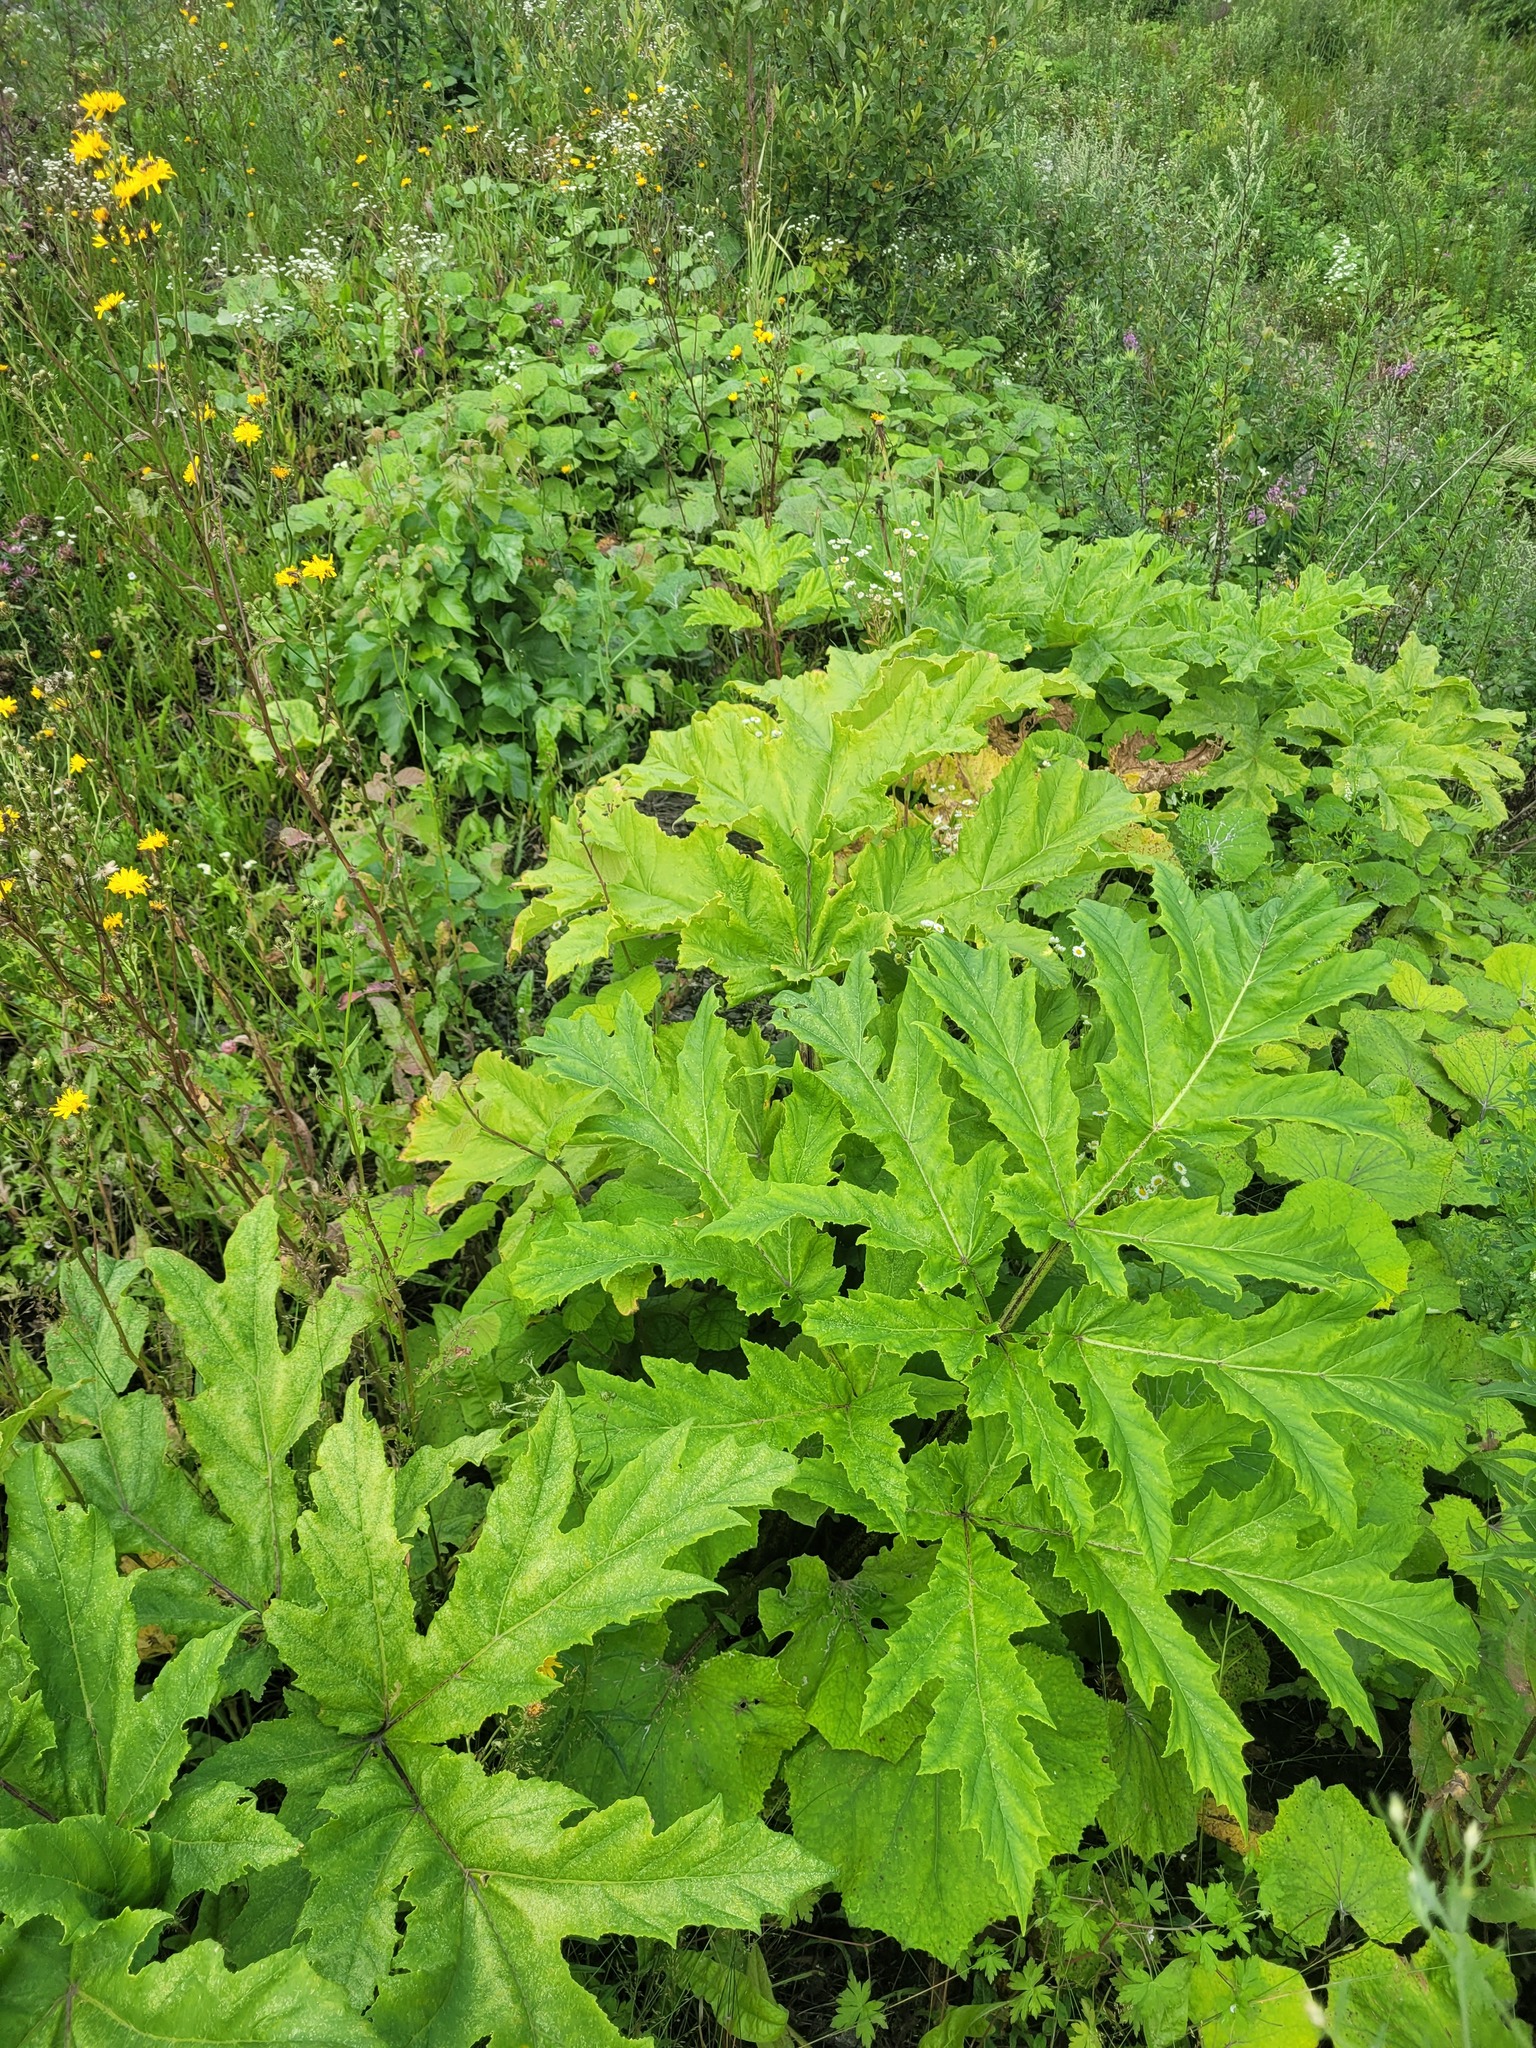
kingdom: Plantae
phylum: Tracheophyta
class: Magnoliopsida
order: Apiales
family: Apiaceae
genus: Heracleum
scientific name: Heracleum sosnowskyi
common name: Sosnowsky's hogweed
